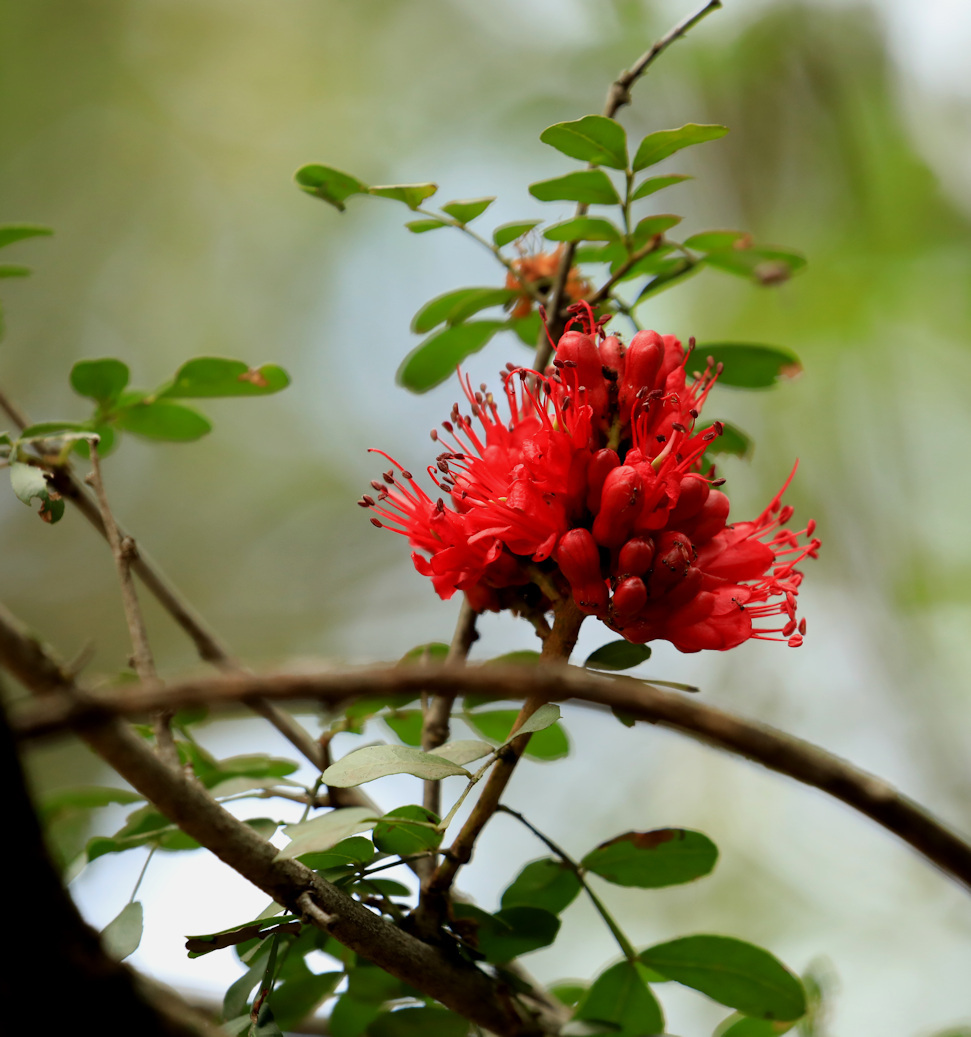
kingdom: Plantae
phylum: Tracheophyta
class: Magnoliopsida
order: Fabales
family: Fabaceae
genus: Schotia
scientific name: Schotia capitata
